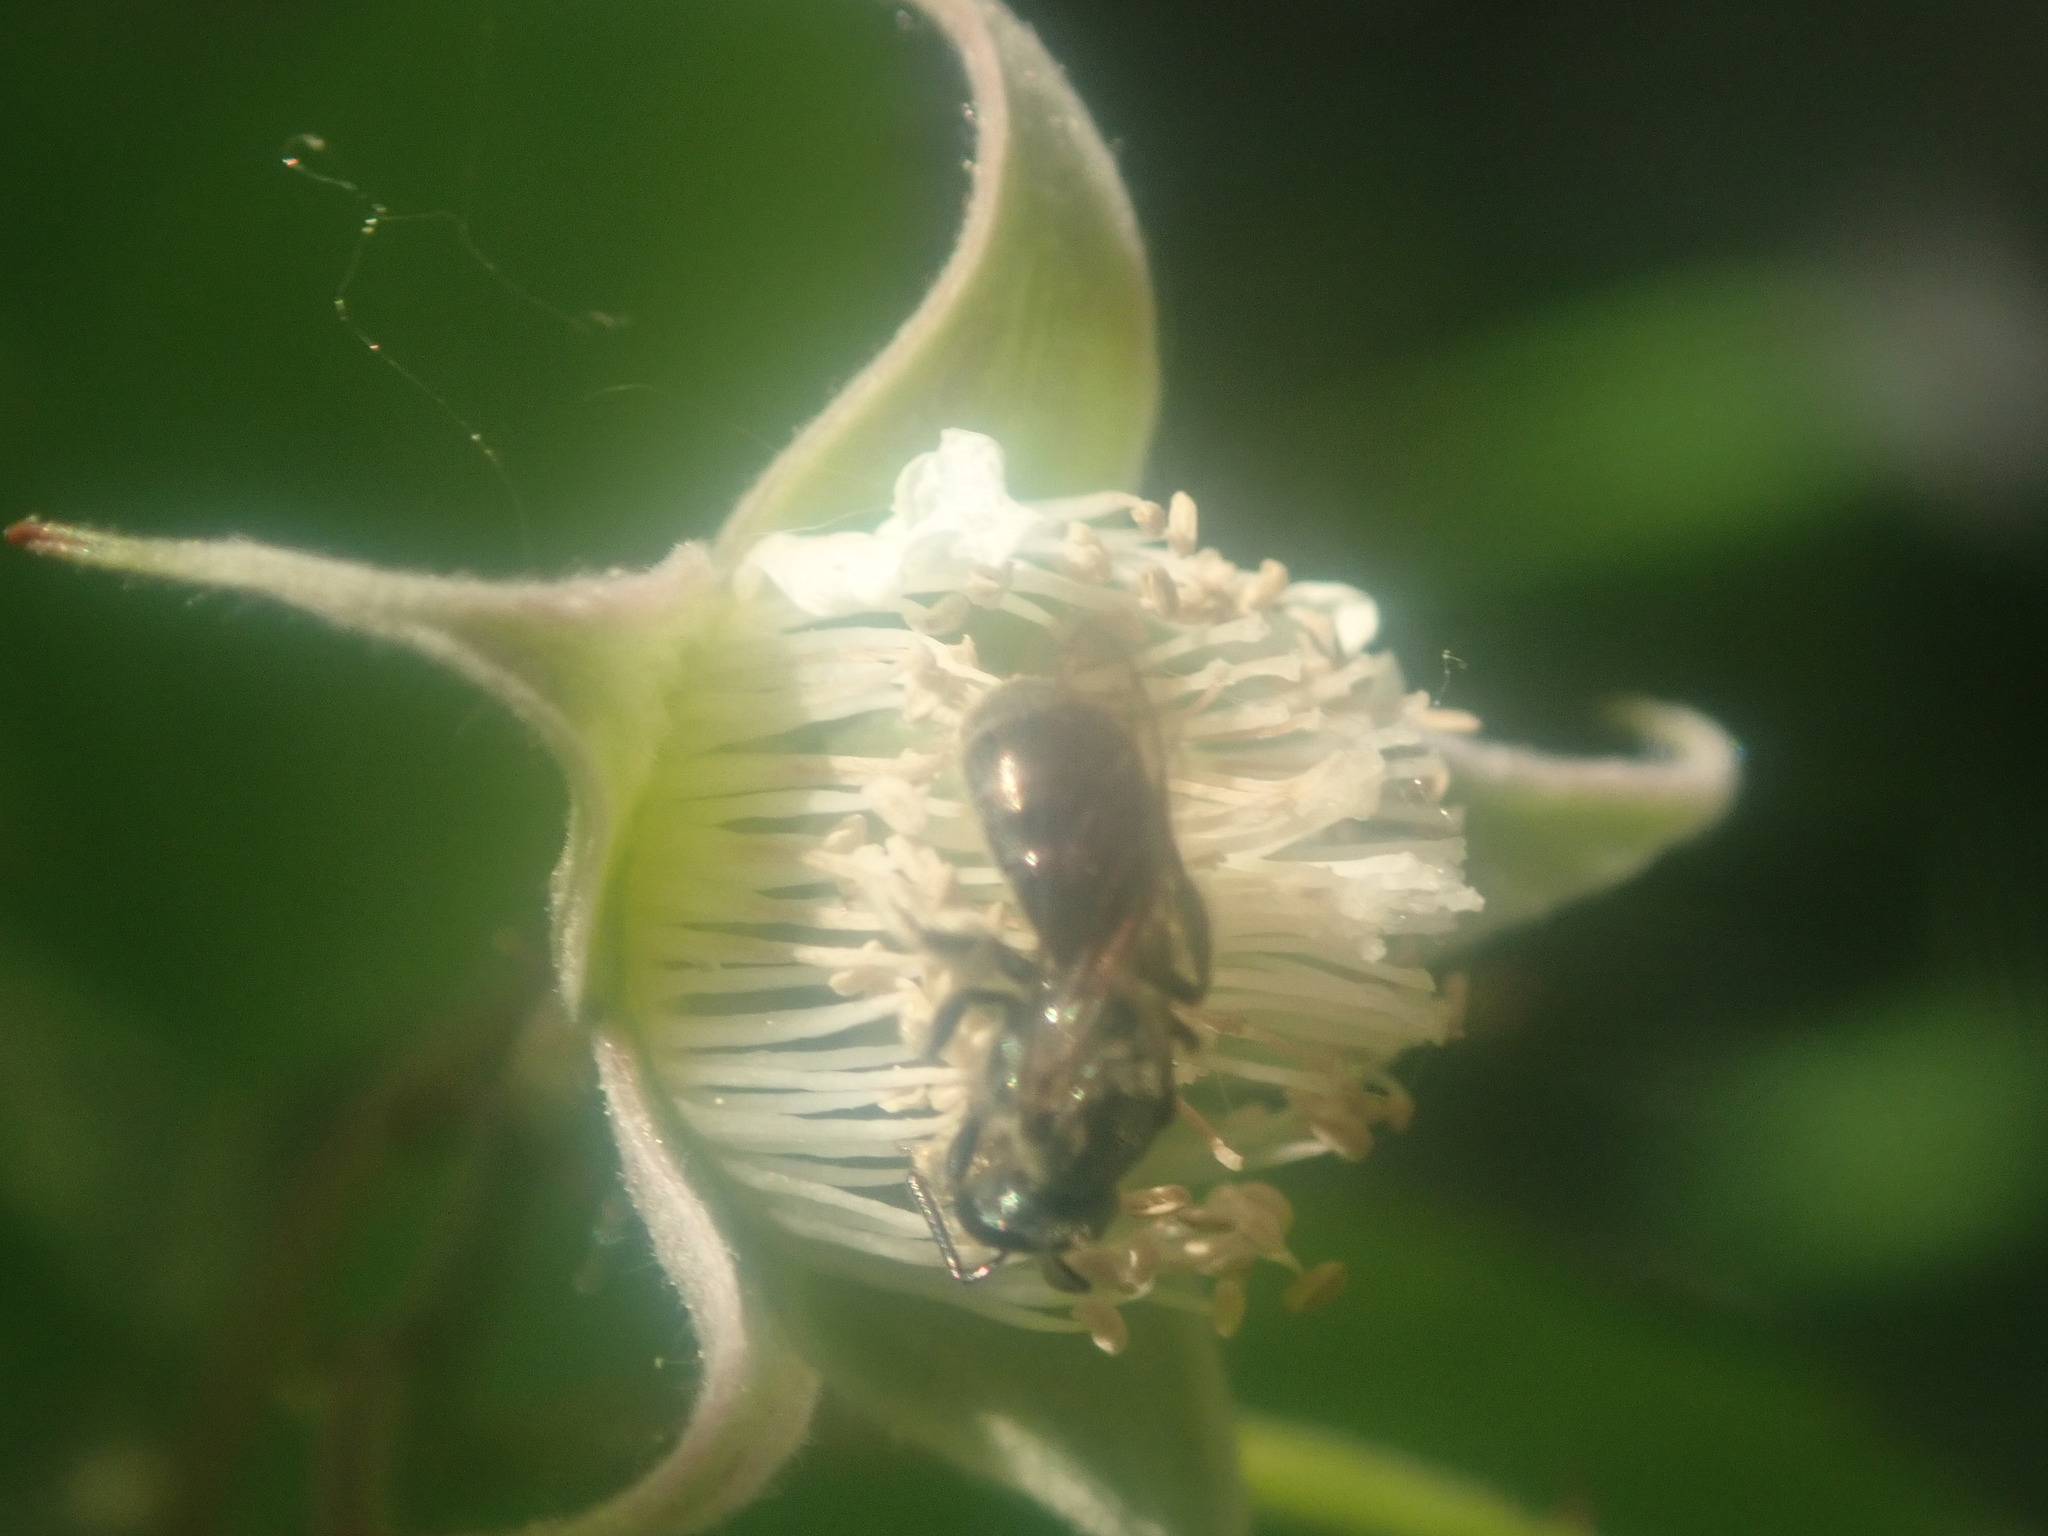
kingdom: Animalia
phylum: Arthropoda
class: Insecta
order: Hymenoptera
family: Halictidae
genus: Dialictus
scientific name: Dialictus
